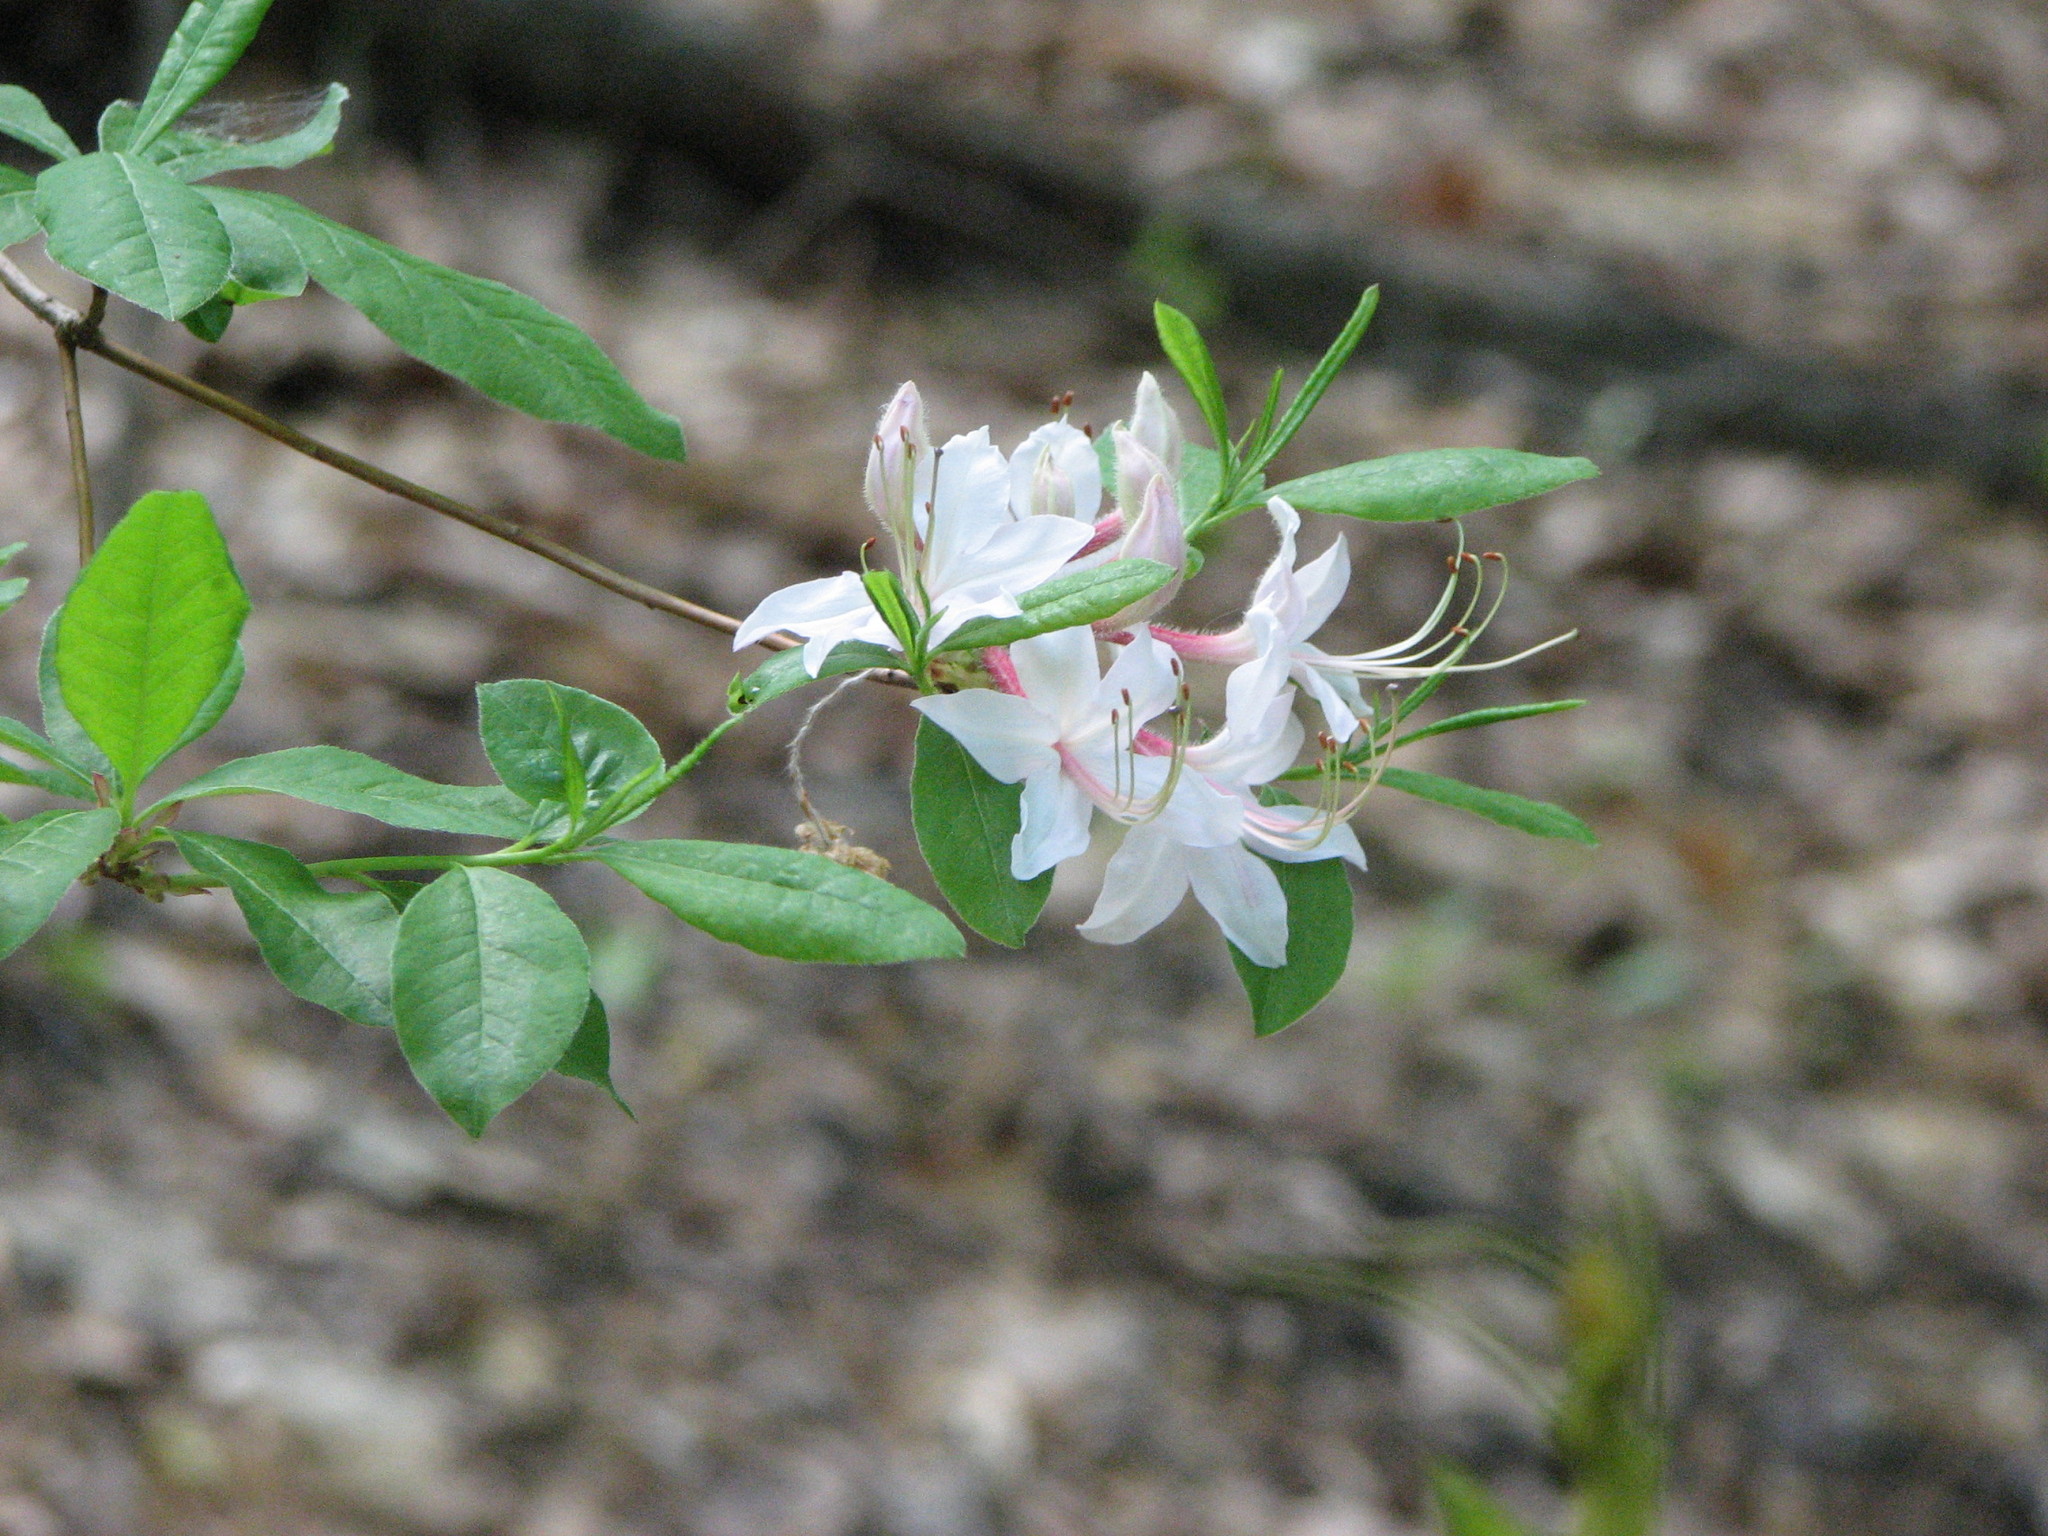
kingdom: Plantae
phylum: Tracheophyta
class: Magnoliopsida
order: Ericales
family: Ericaceae
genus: Rhododendron
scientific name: Rhododendron periclymenoides
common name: Election-pink
